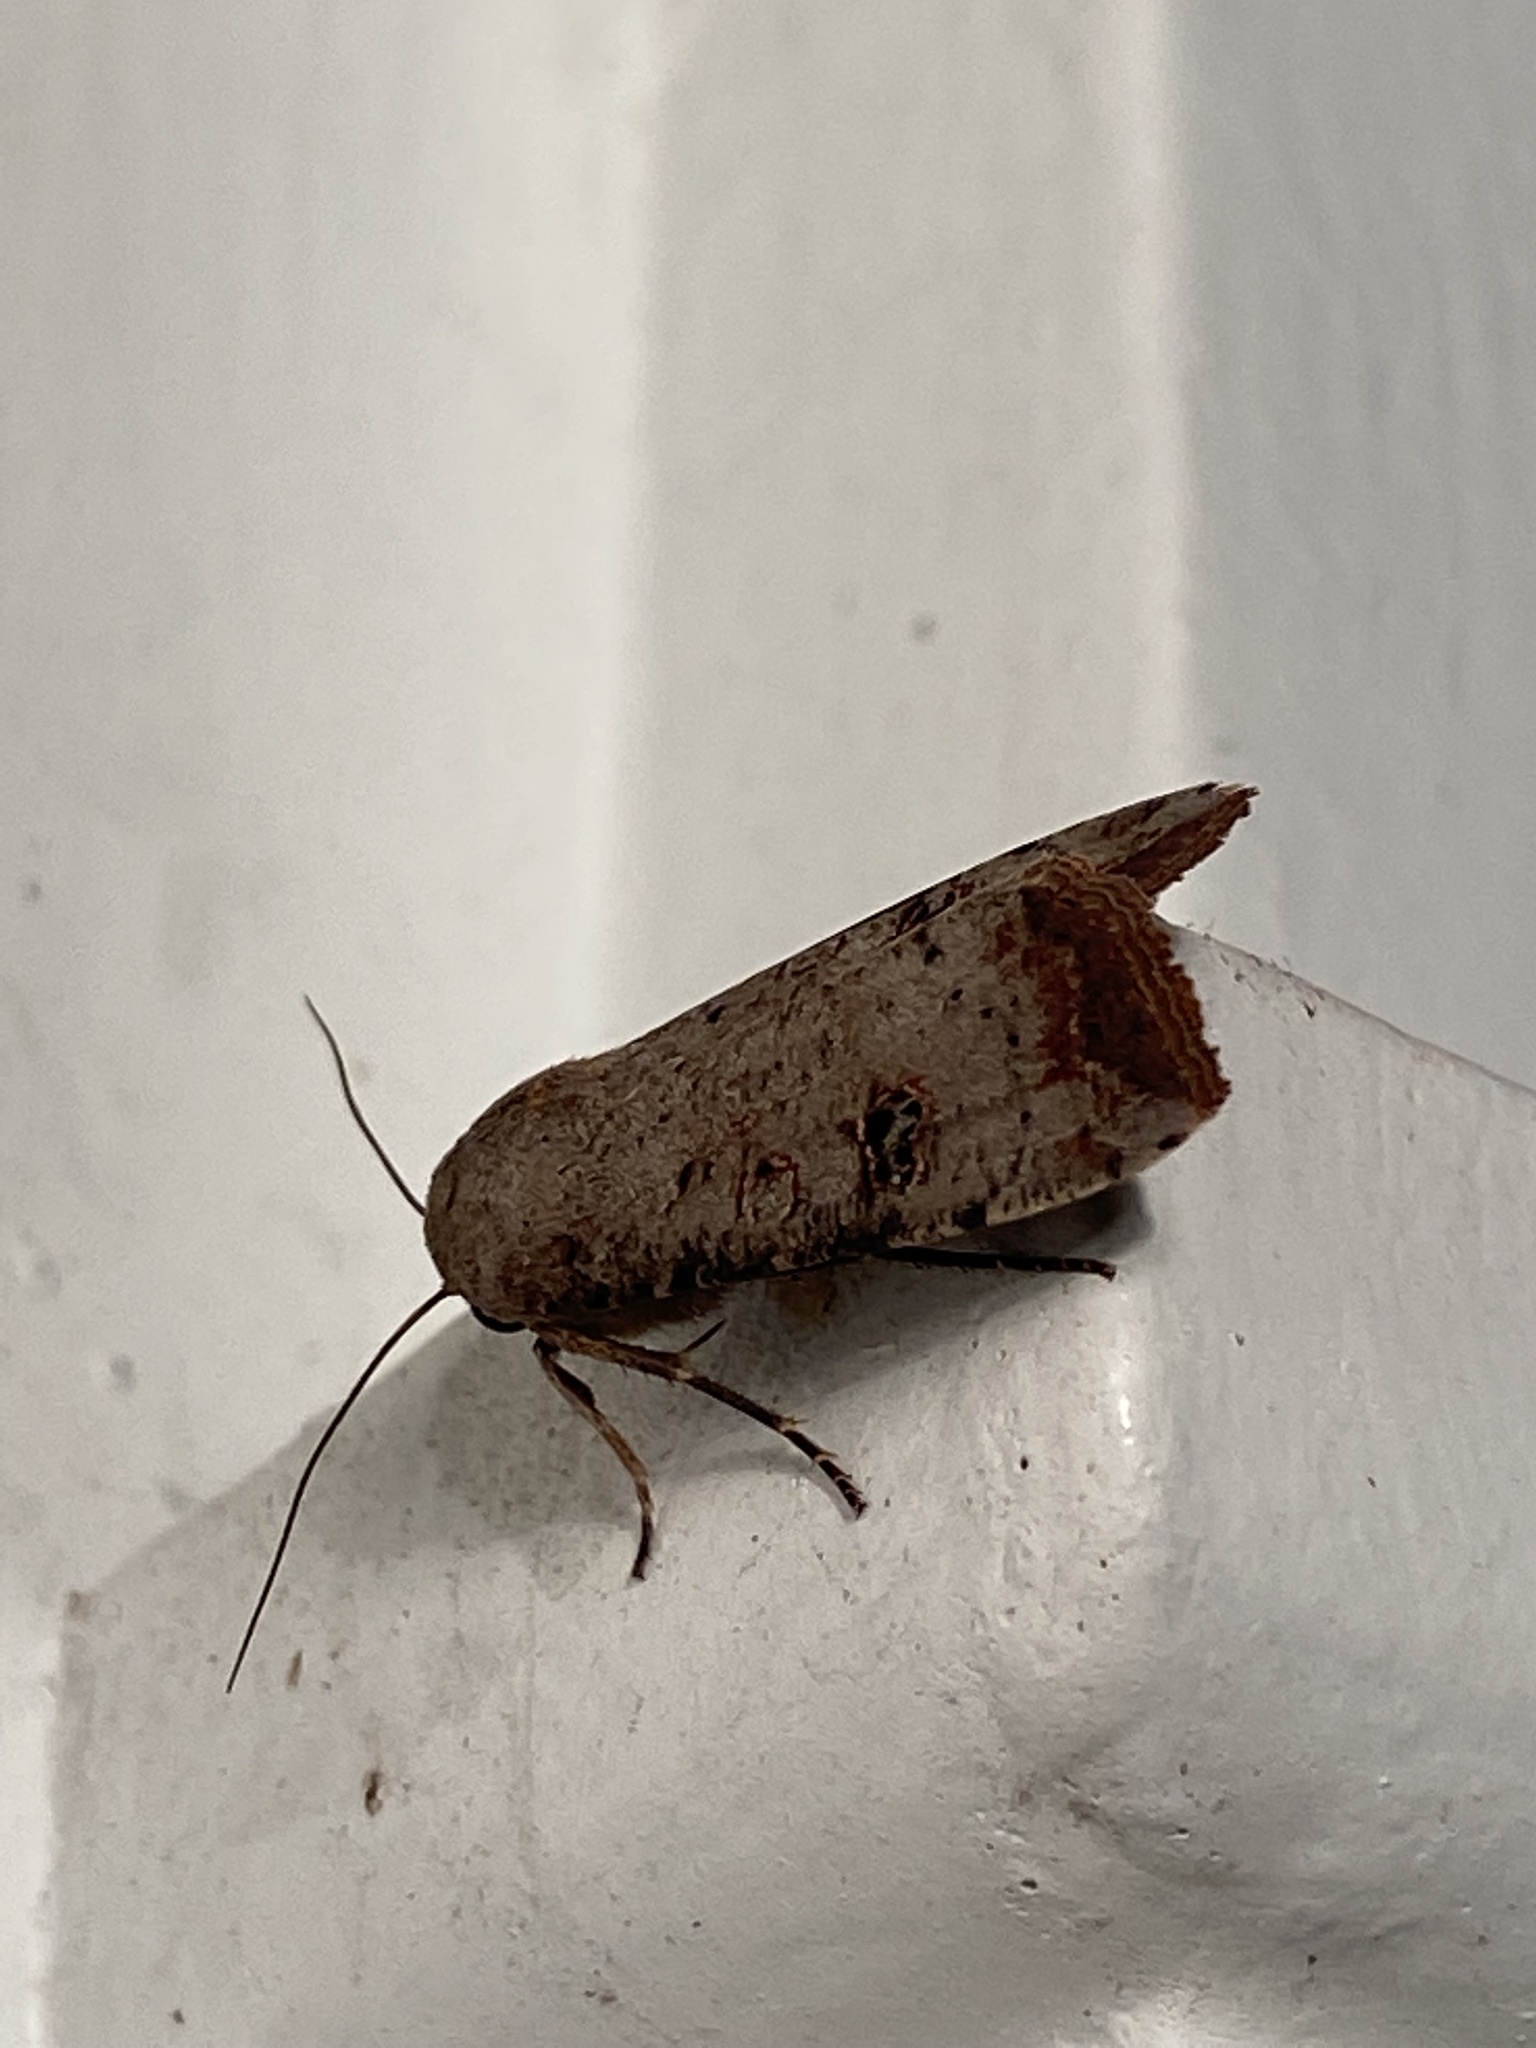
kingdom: Animalia
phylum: Arthropoda
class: Insecta
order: Lepidoptera
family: Noctuidae
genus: Anicla
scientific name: Anicla infecta
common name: Green cutworm
